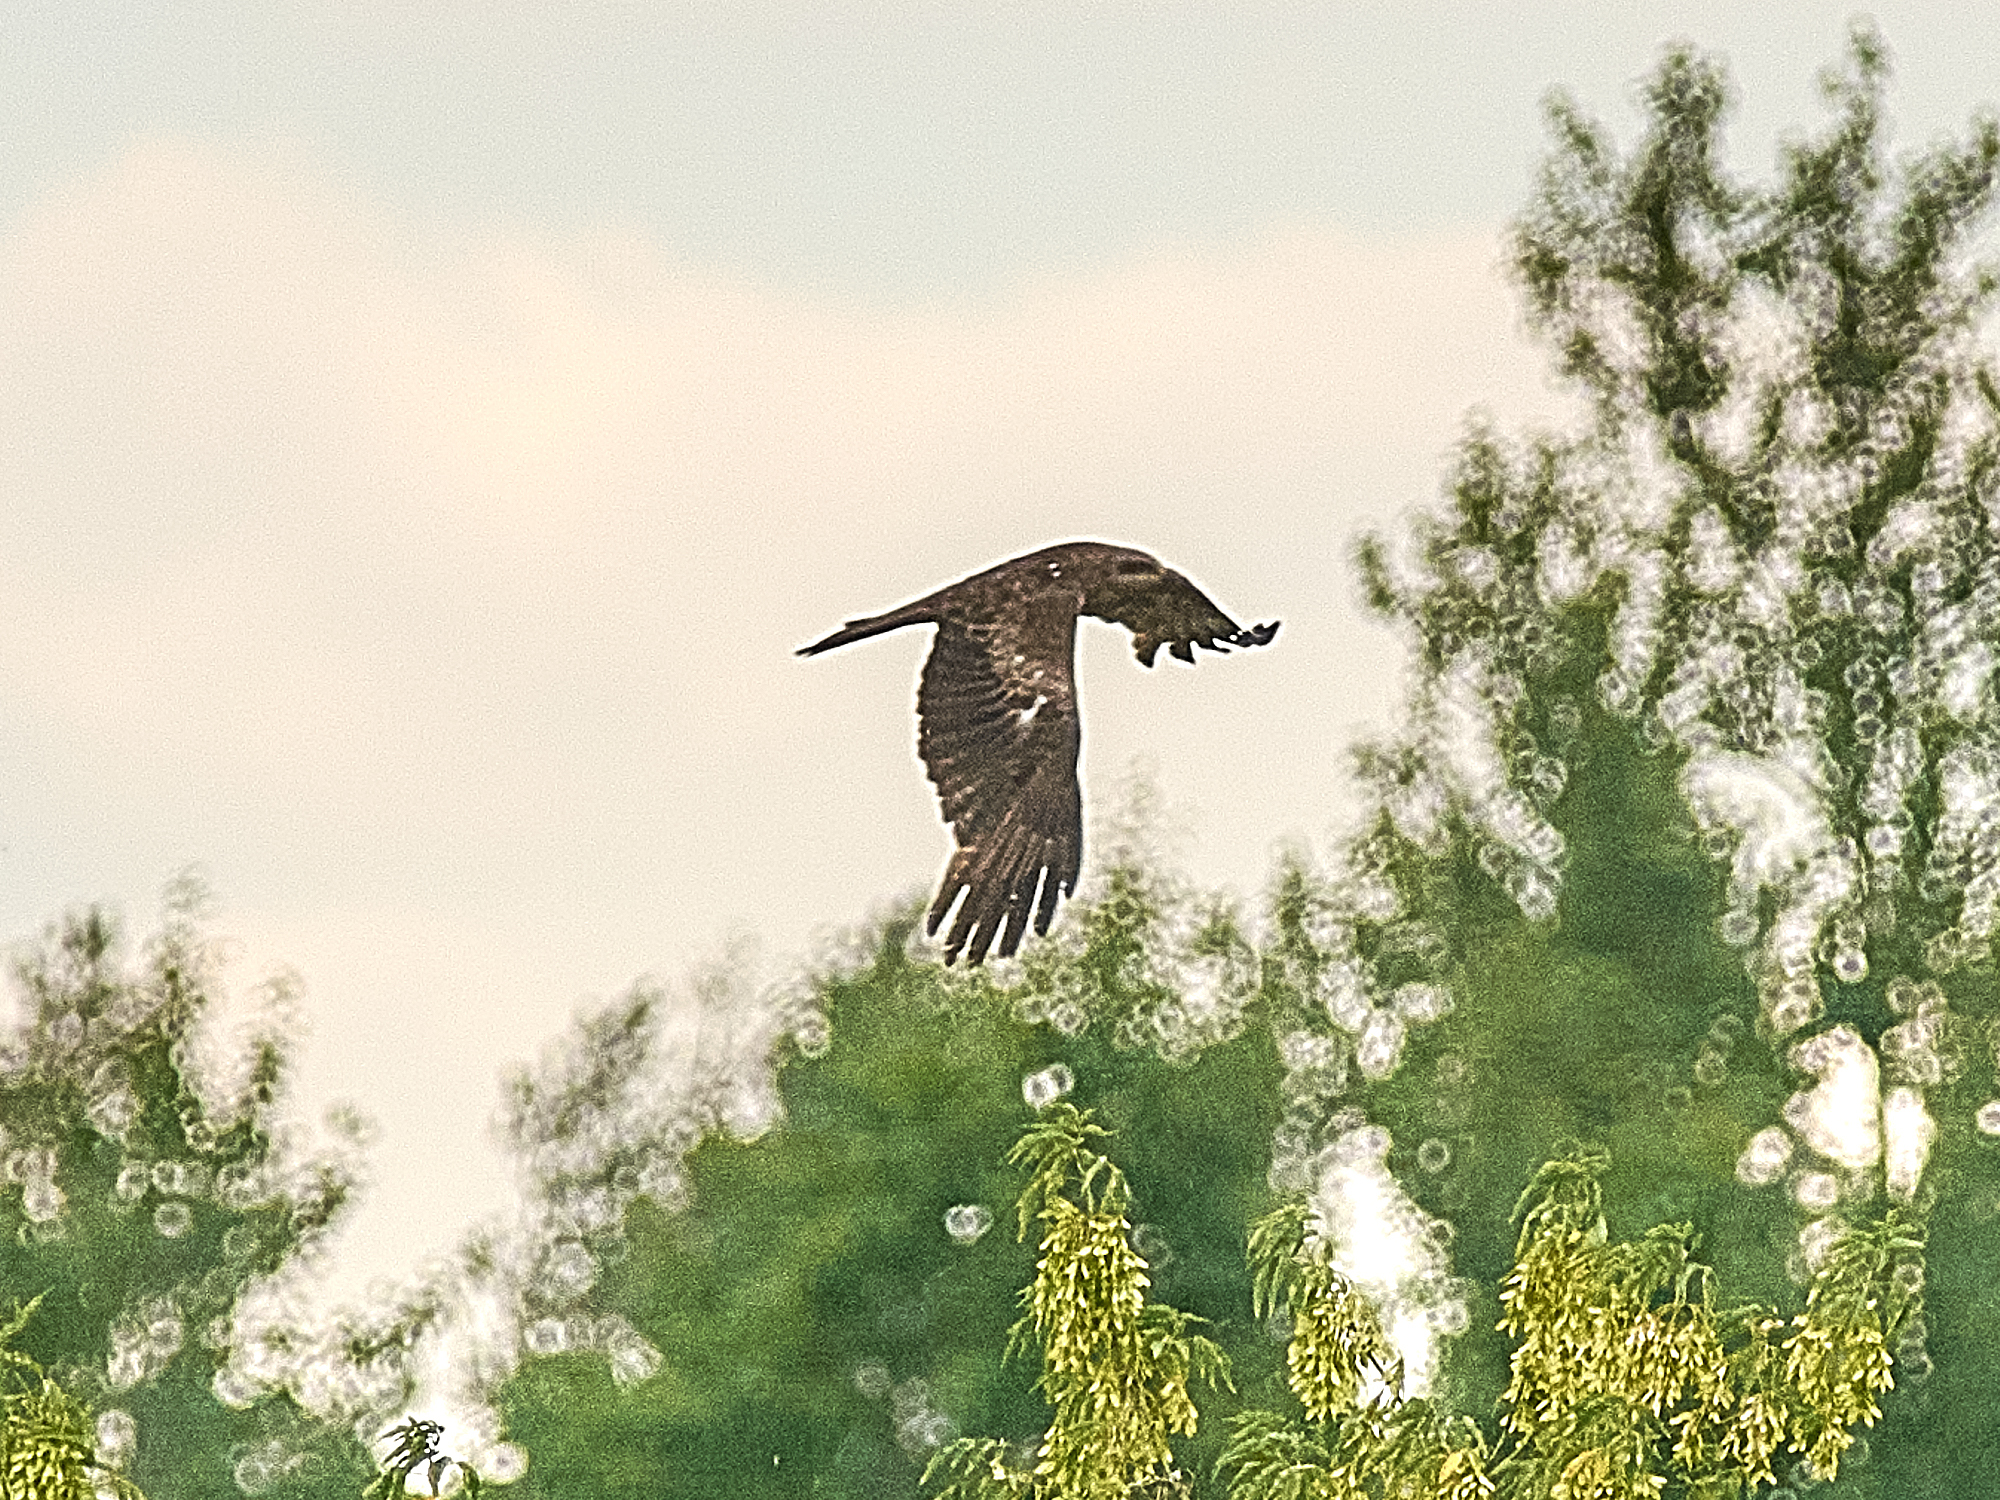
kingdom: Animalia
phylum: Chordata
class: Aves
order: Accipitriformes
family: Accipitridae
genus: Milvus
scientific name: Milvus migrans
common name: Black kite
